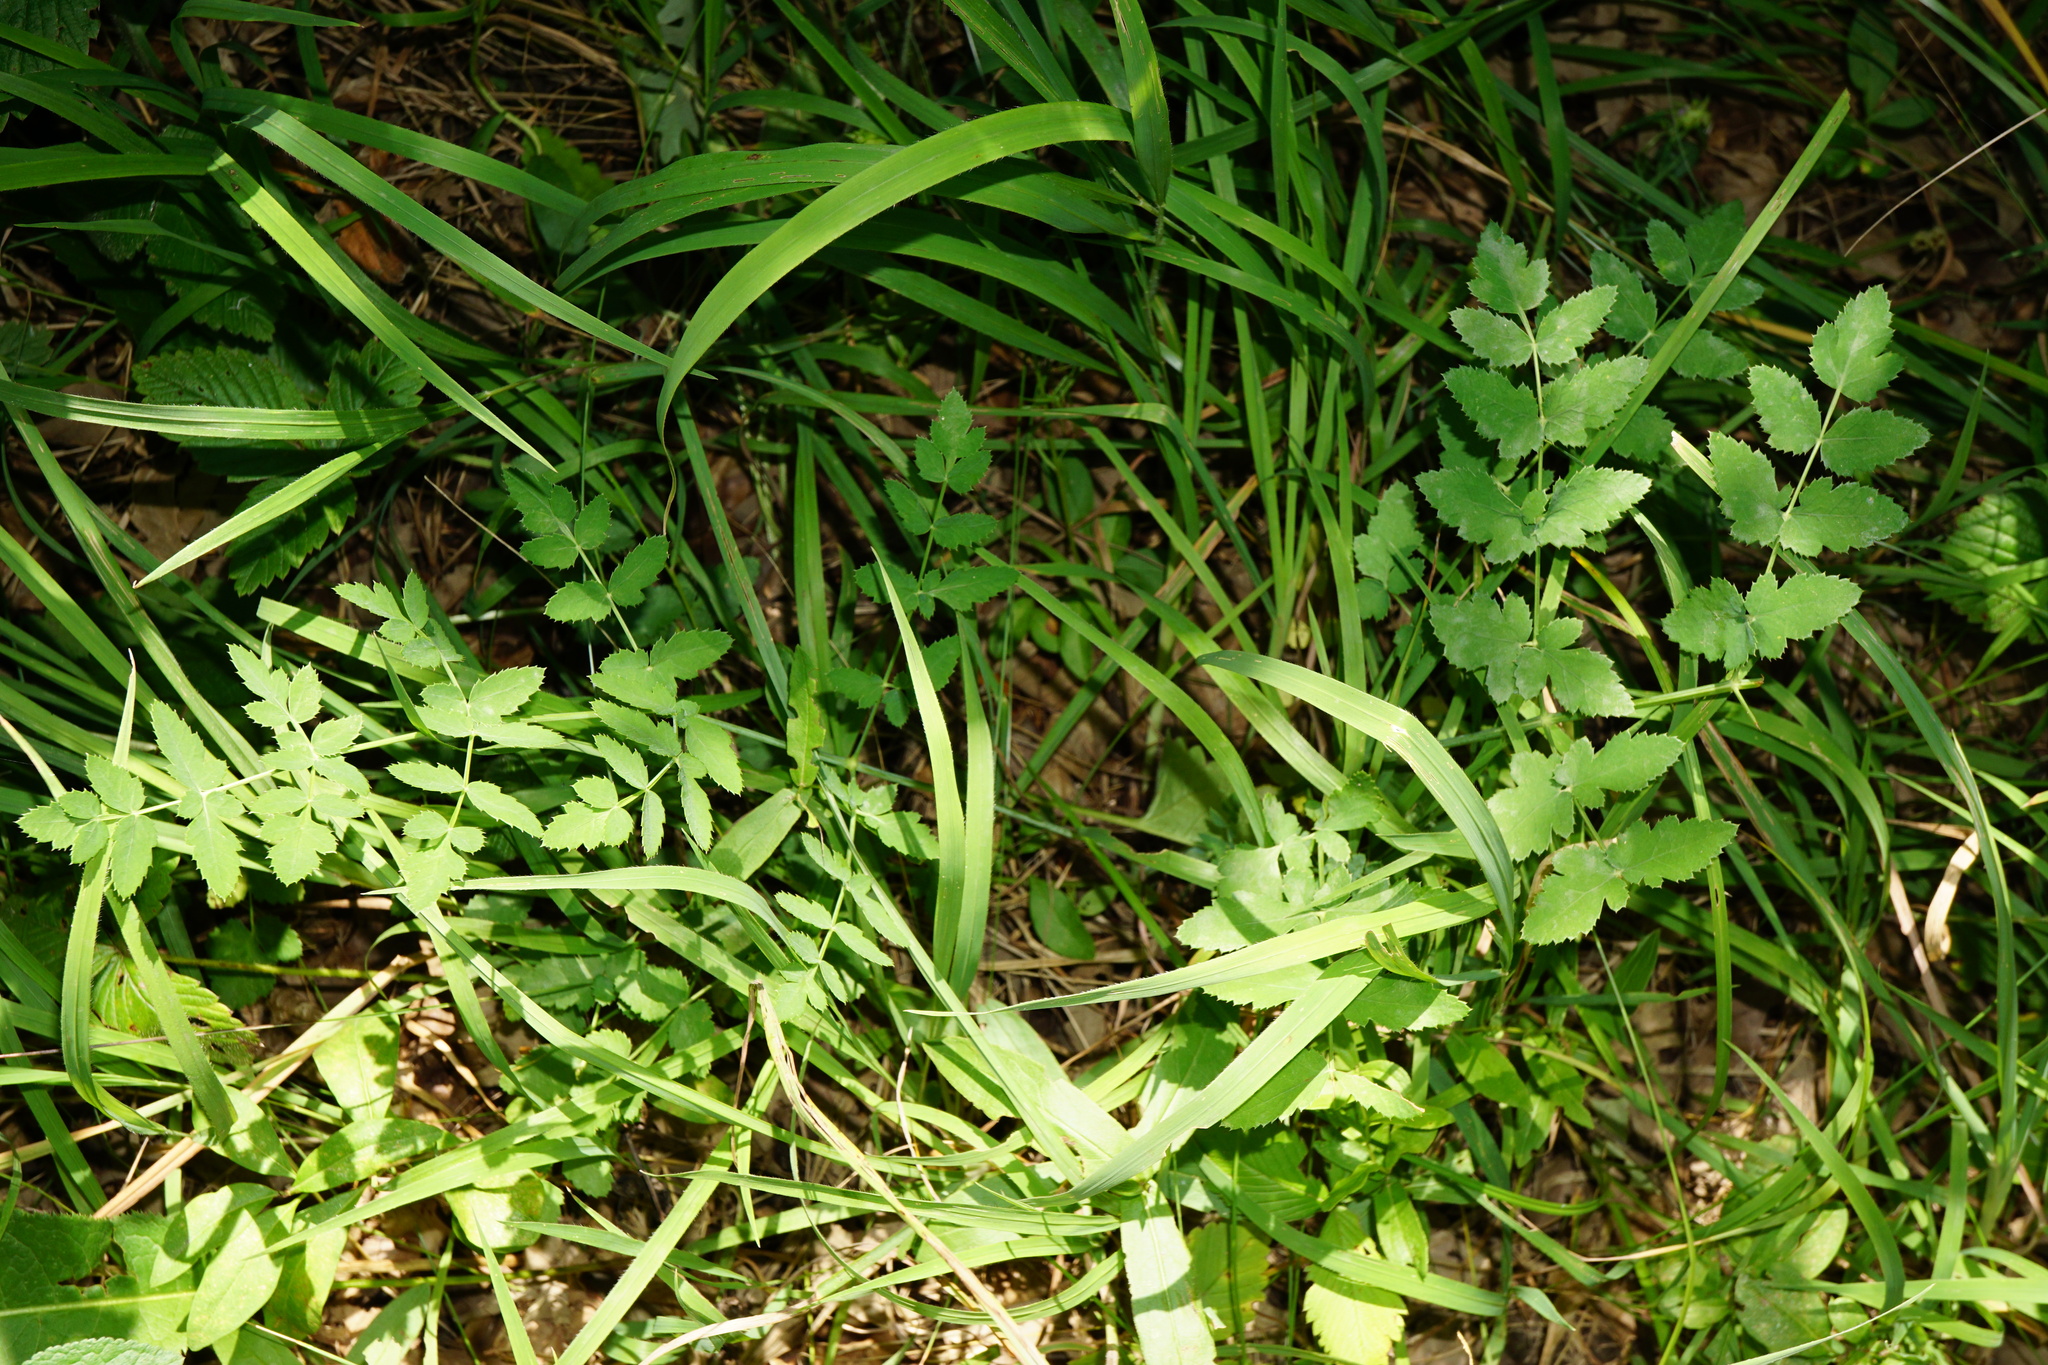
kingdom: Plantae
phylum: Tracheophyta
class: Magnoliopsida
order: Apiales
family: Apiaceae
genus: Cervaria
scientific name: Cervaria rivini
